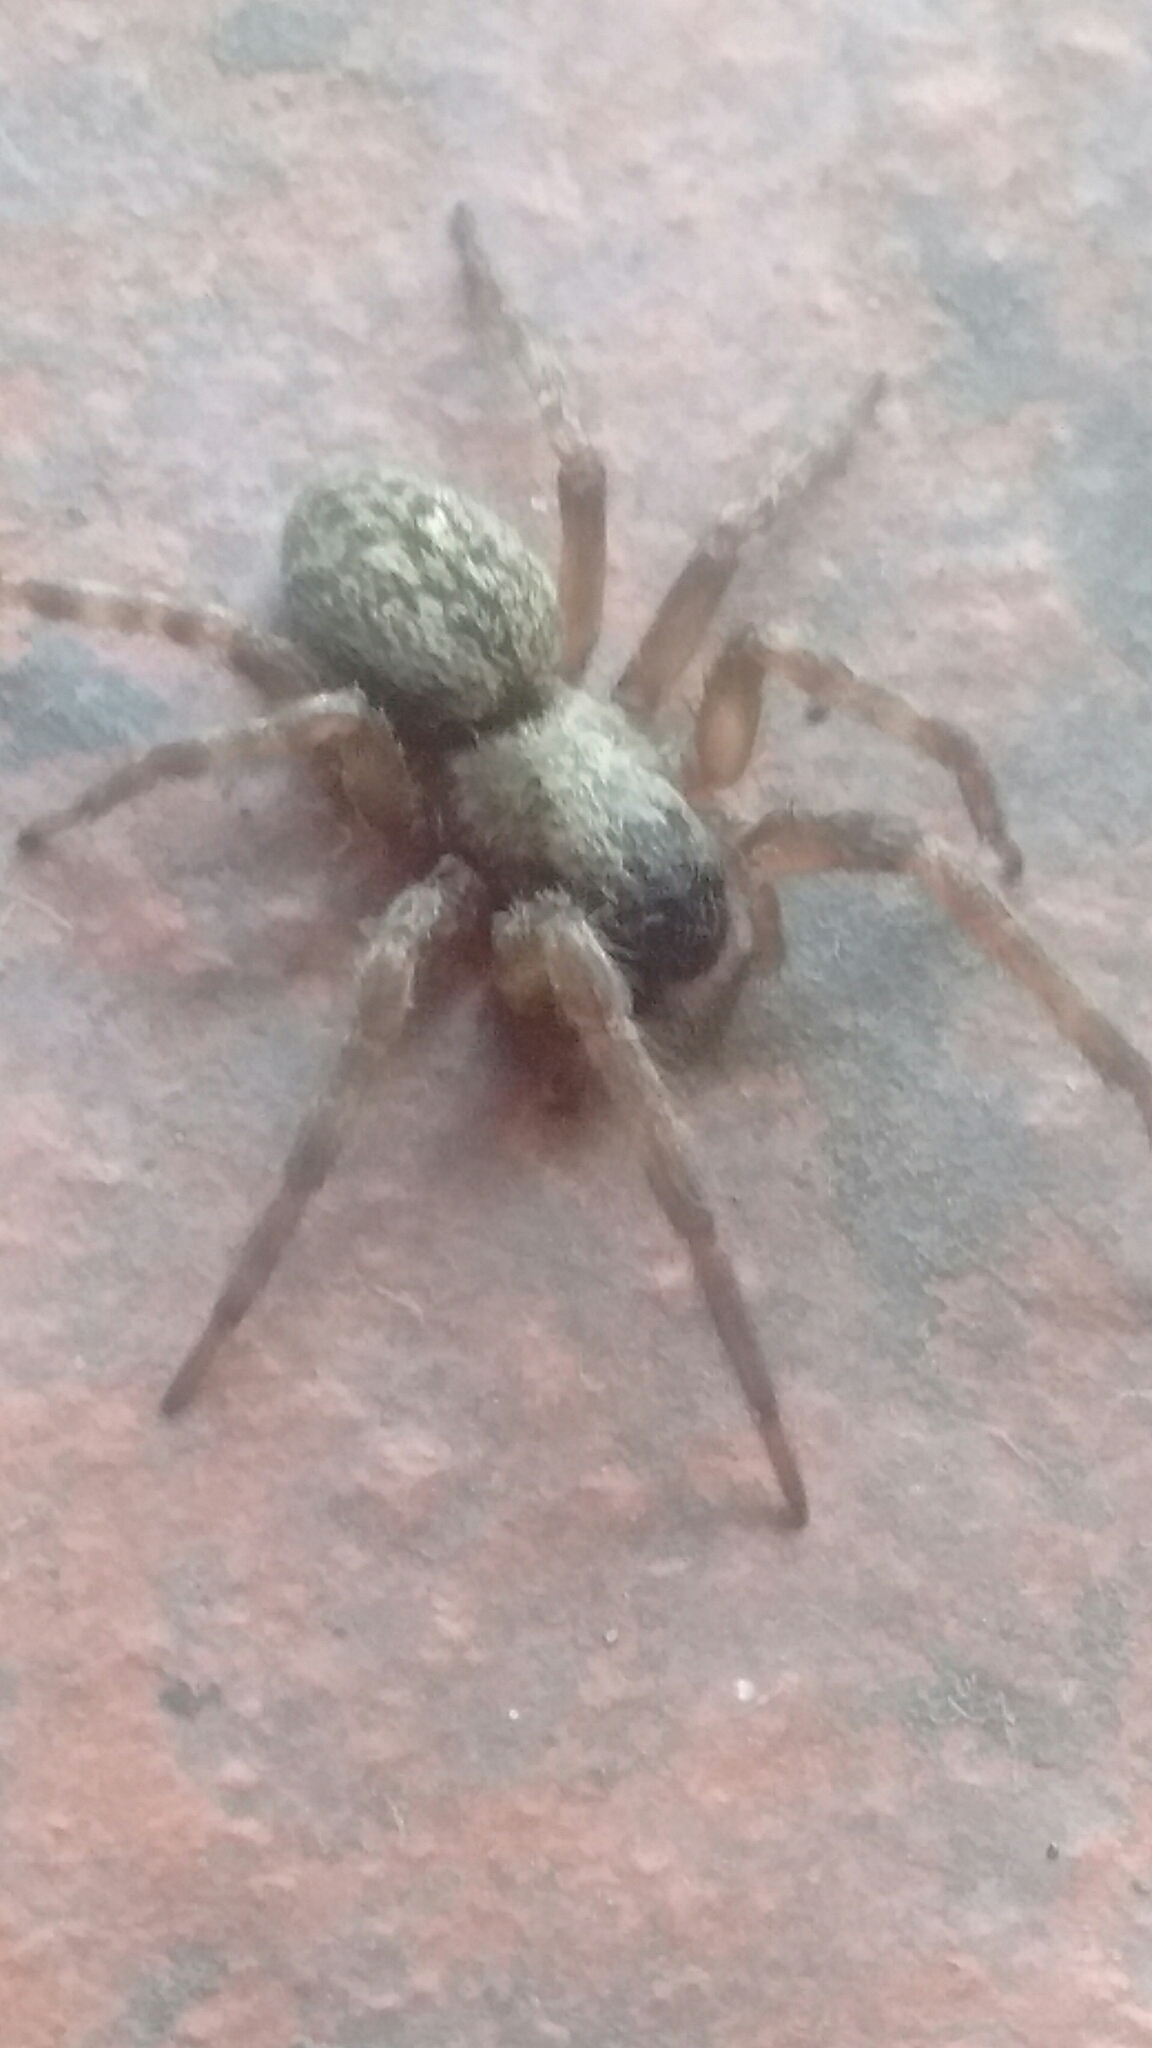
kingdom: Animalia
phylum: Arthropoda
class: Arachnida
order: Araneae
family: Desidae
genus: Badumna
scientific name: Badumna longinqua
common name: Gray house spider
